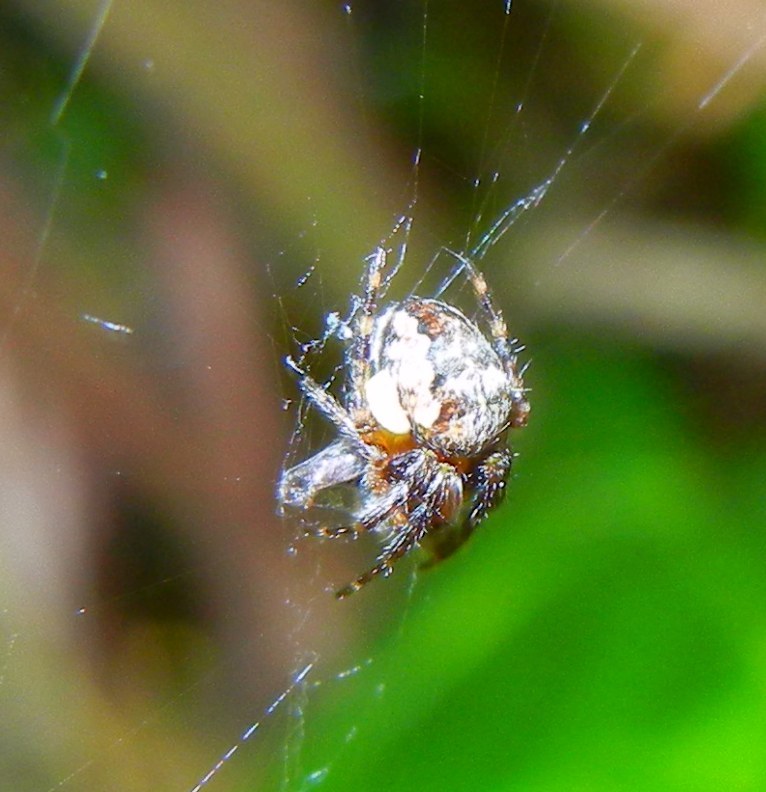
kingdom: Animalia
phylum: Arthropoda
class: Arachnida
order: Araneae
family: Araneidae
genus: Araneus
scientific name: Araneus diadematus
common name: Cross orbweaver
